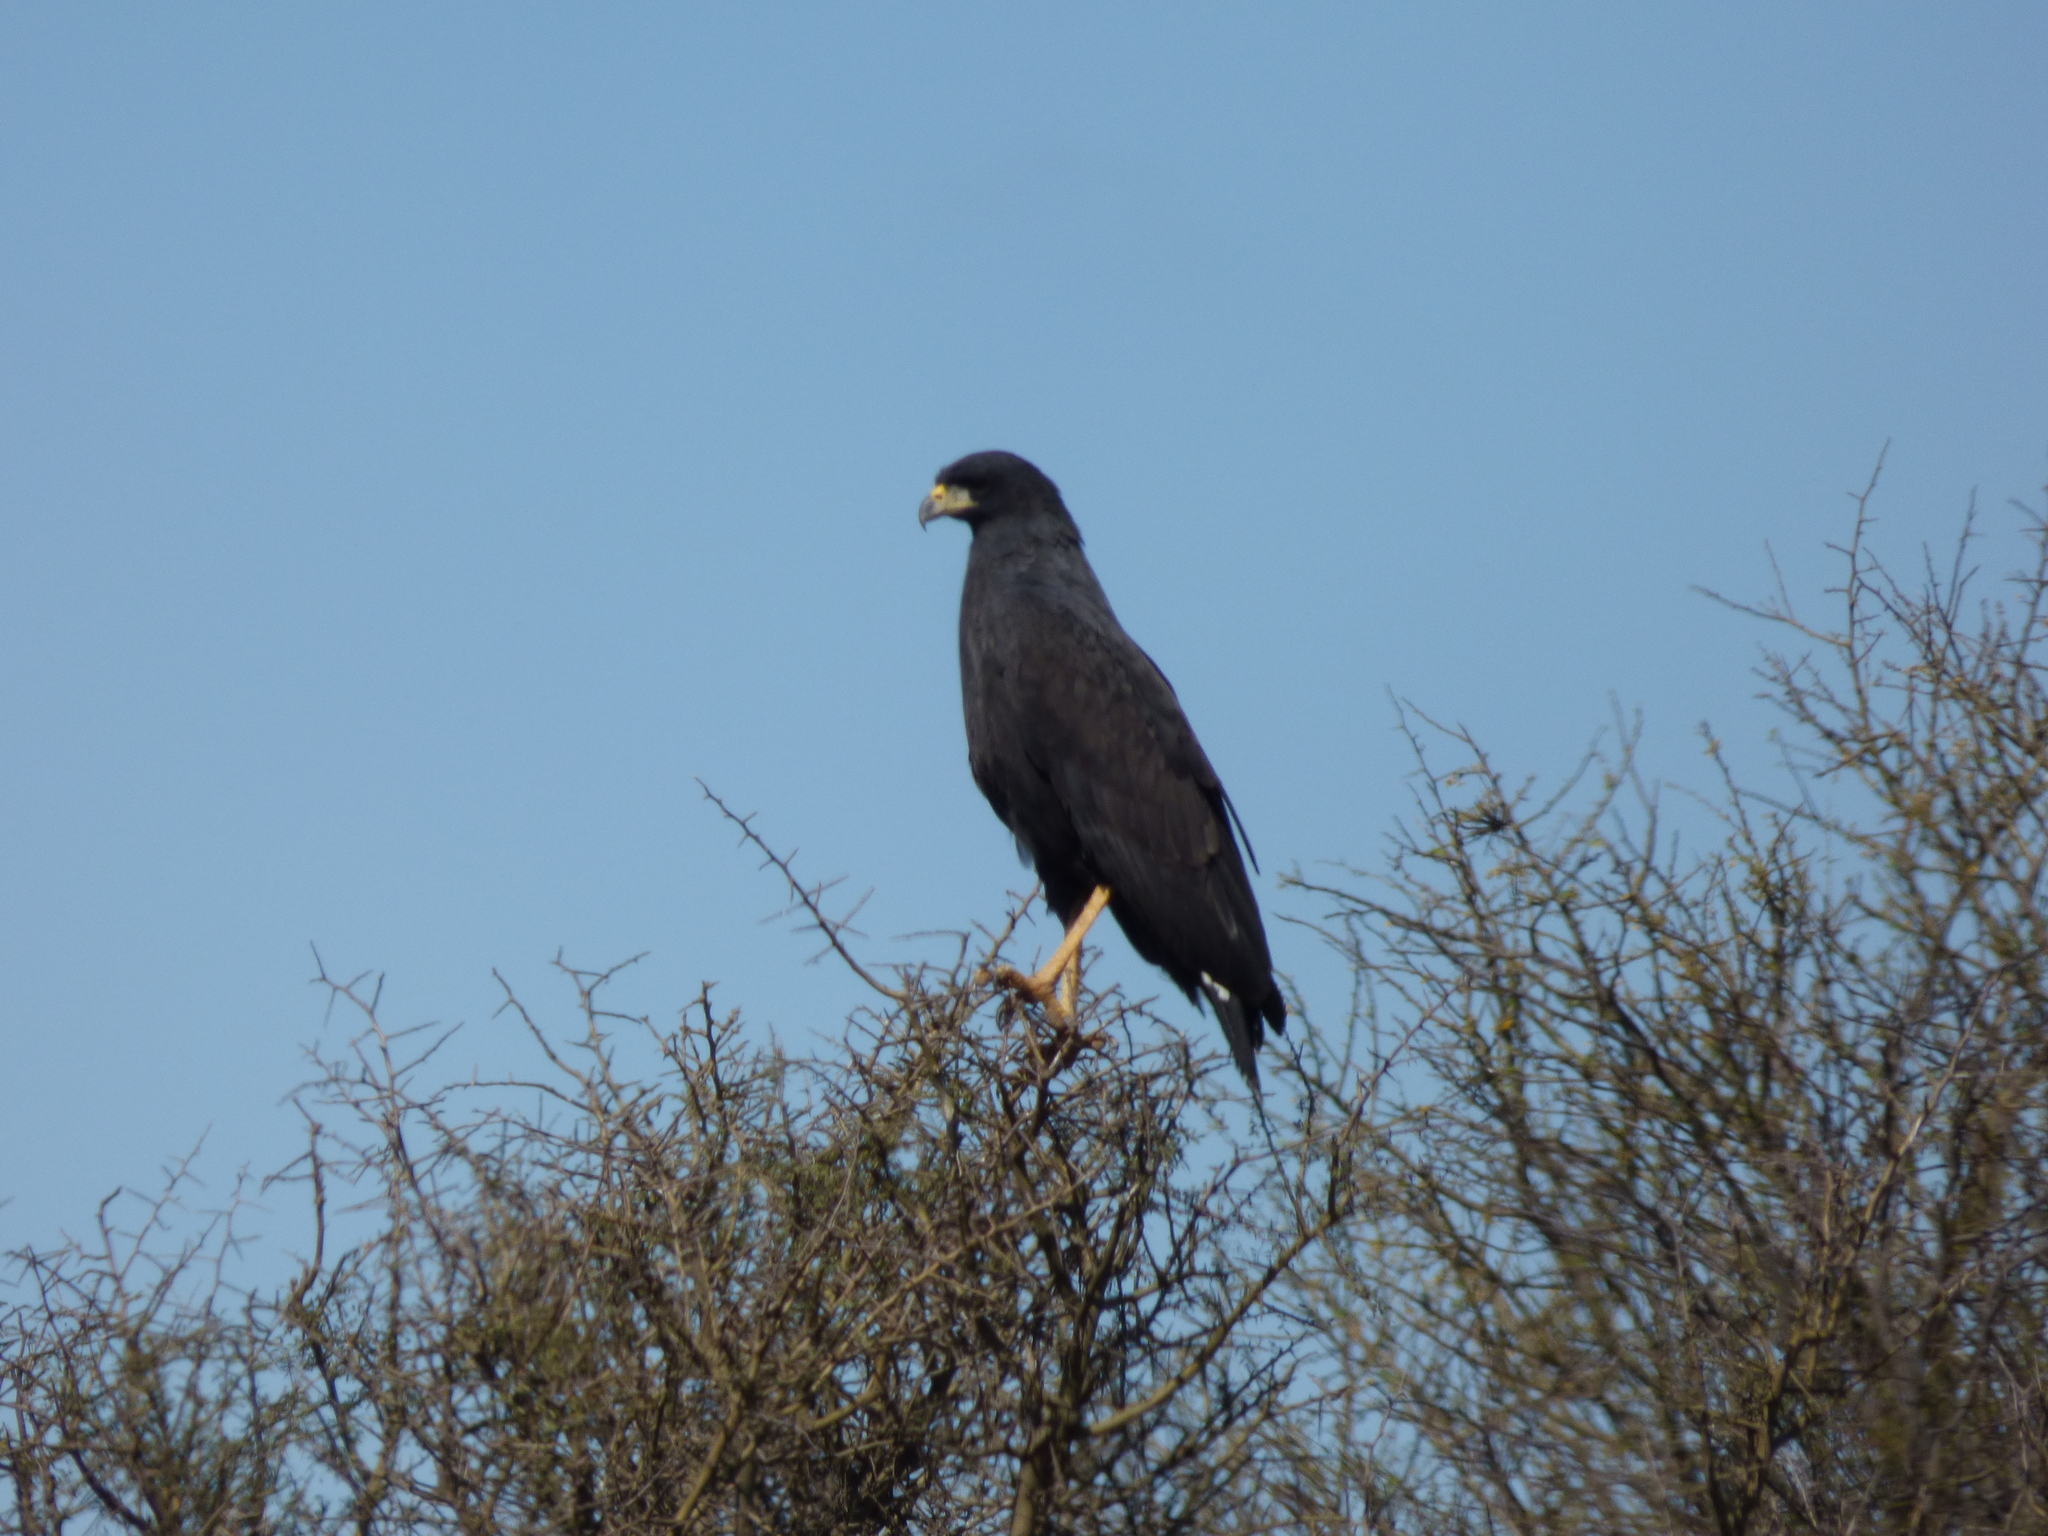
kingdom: Animalia
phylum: Chordata
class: Aves
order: Accipitriformes
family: Accipitridae
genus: Buteogallus
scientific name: Buteogallus urubitinga
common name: Great black hawk
